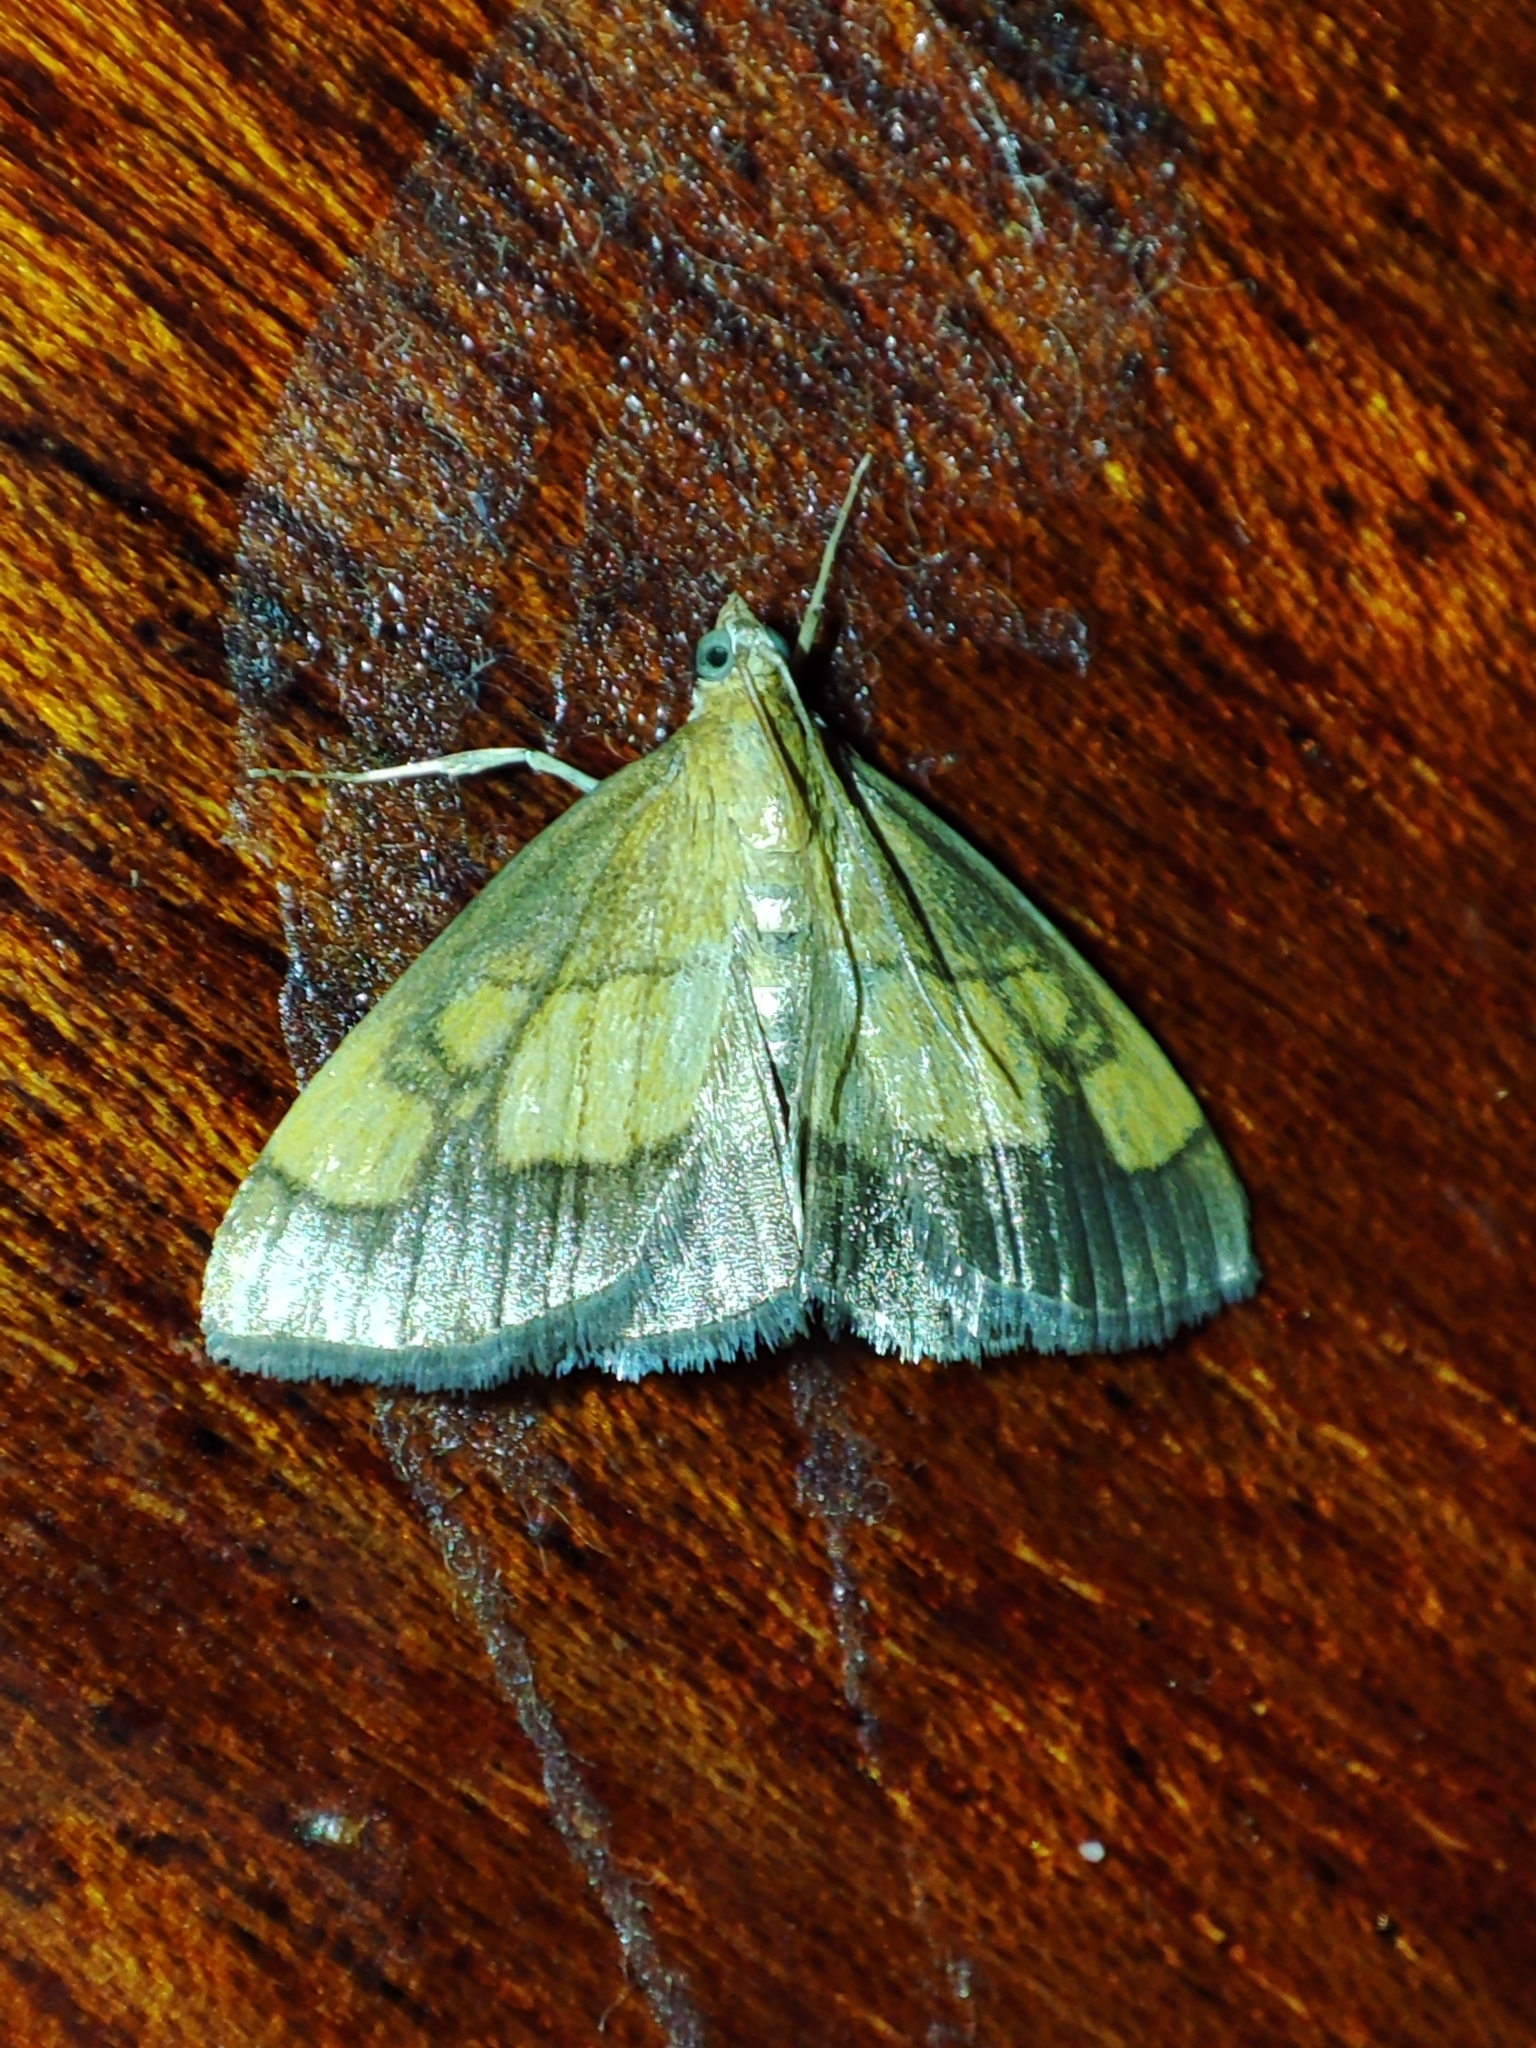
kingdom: Animalia
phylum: Arthropoda
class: Insecta
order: Lepidoptera
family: Crambidae
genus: Evergestis
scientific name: Evergestis limbata
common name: Dark bordered pearl
